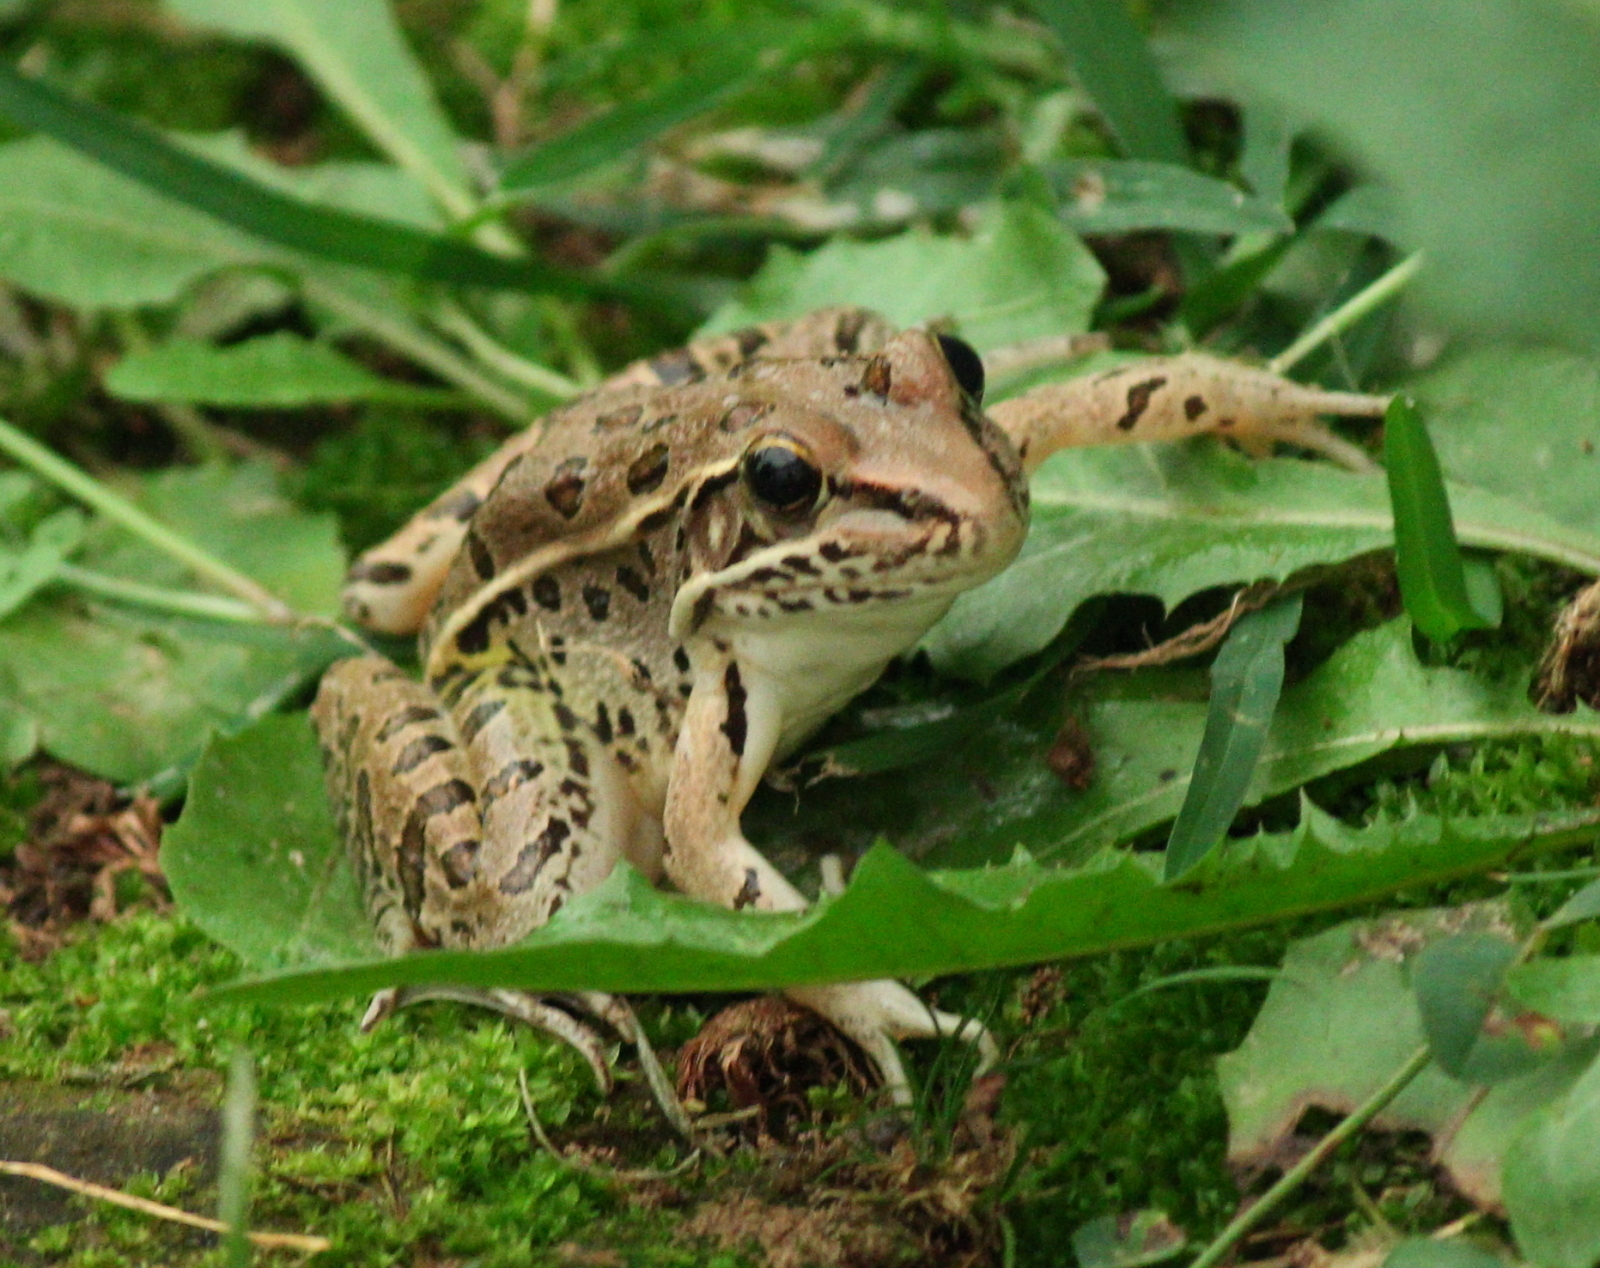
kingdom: Animalia
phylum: Chordata
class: Amphibia
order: Anura
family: Ranidae
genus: Lithobates
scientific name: Lithobates sphenocephalus
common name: Southern leopard frog
